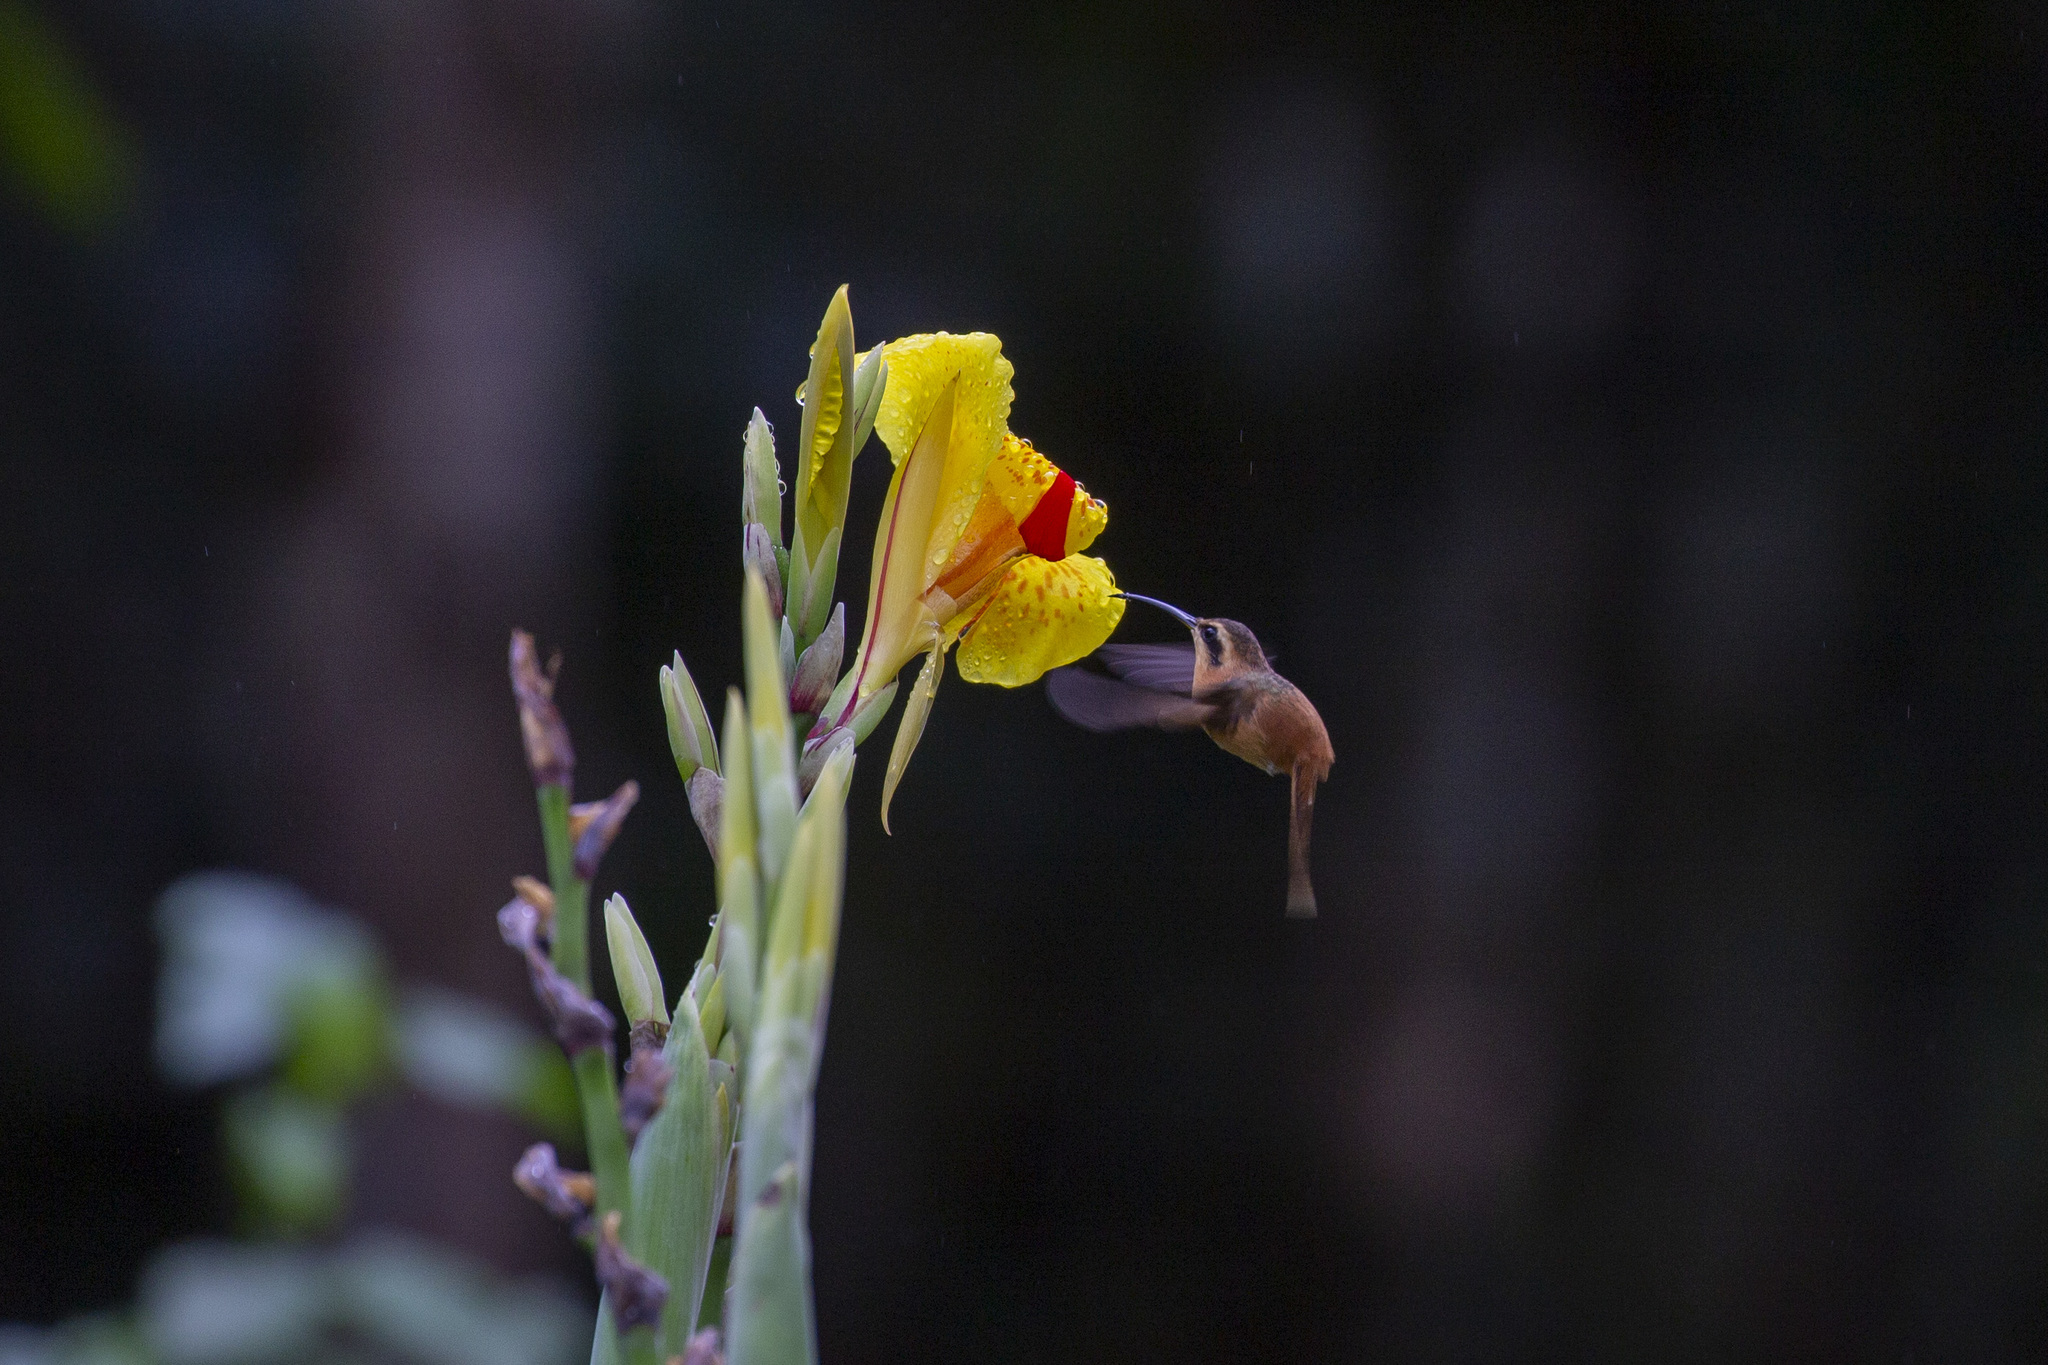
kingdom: Animalia
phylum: Chordata
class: Aves
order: Apodiformes
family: Trochilidae
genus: Phaethornis
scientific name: Phaethornis ruber
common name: Reddish hermit
